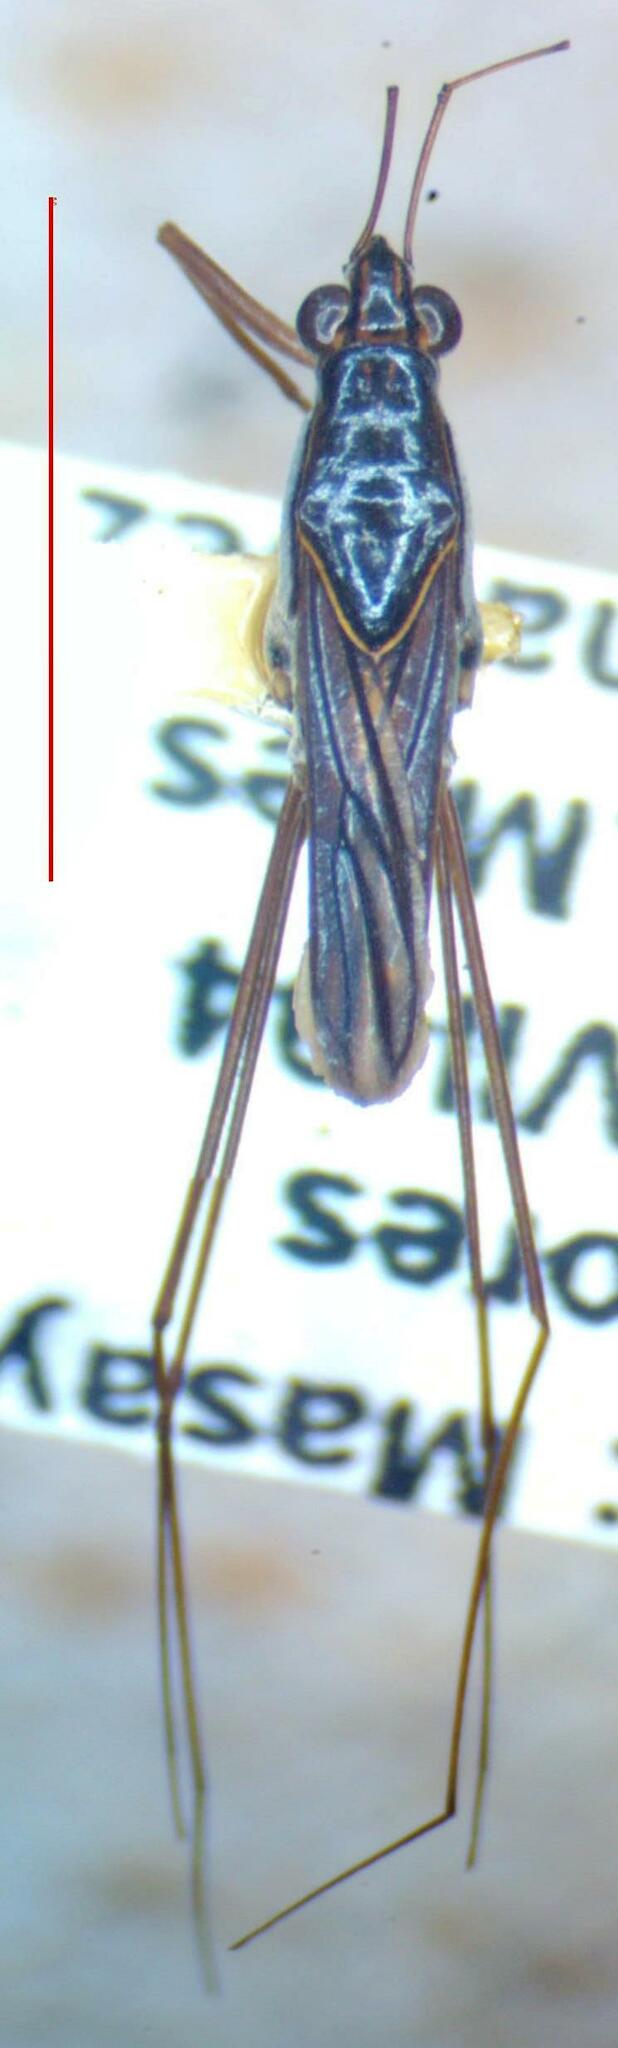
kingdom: Animalia
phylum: Arthropoda
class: Insecta
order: Hemiptera
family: Gerridae
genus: Limnogonus
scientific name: Limnogonus franciscanus
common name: Franciscan pond skater
